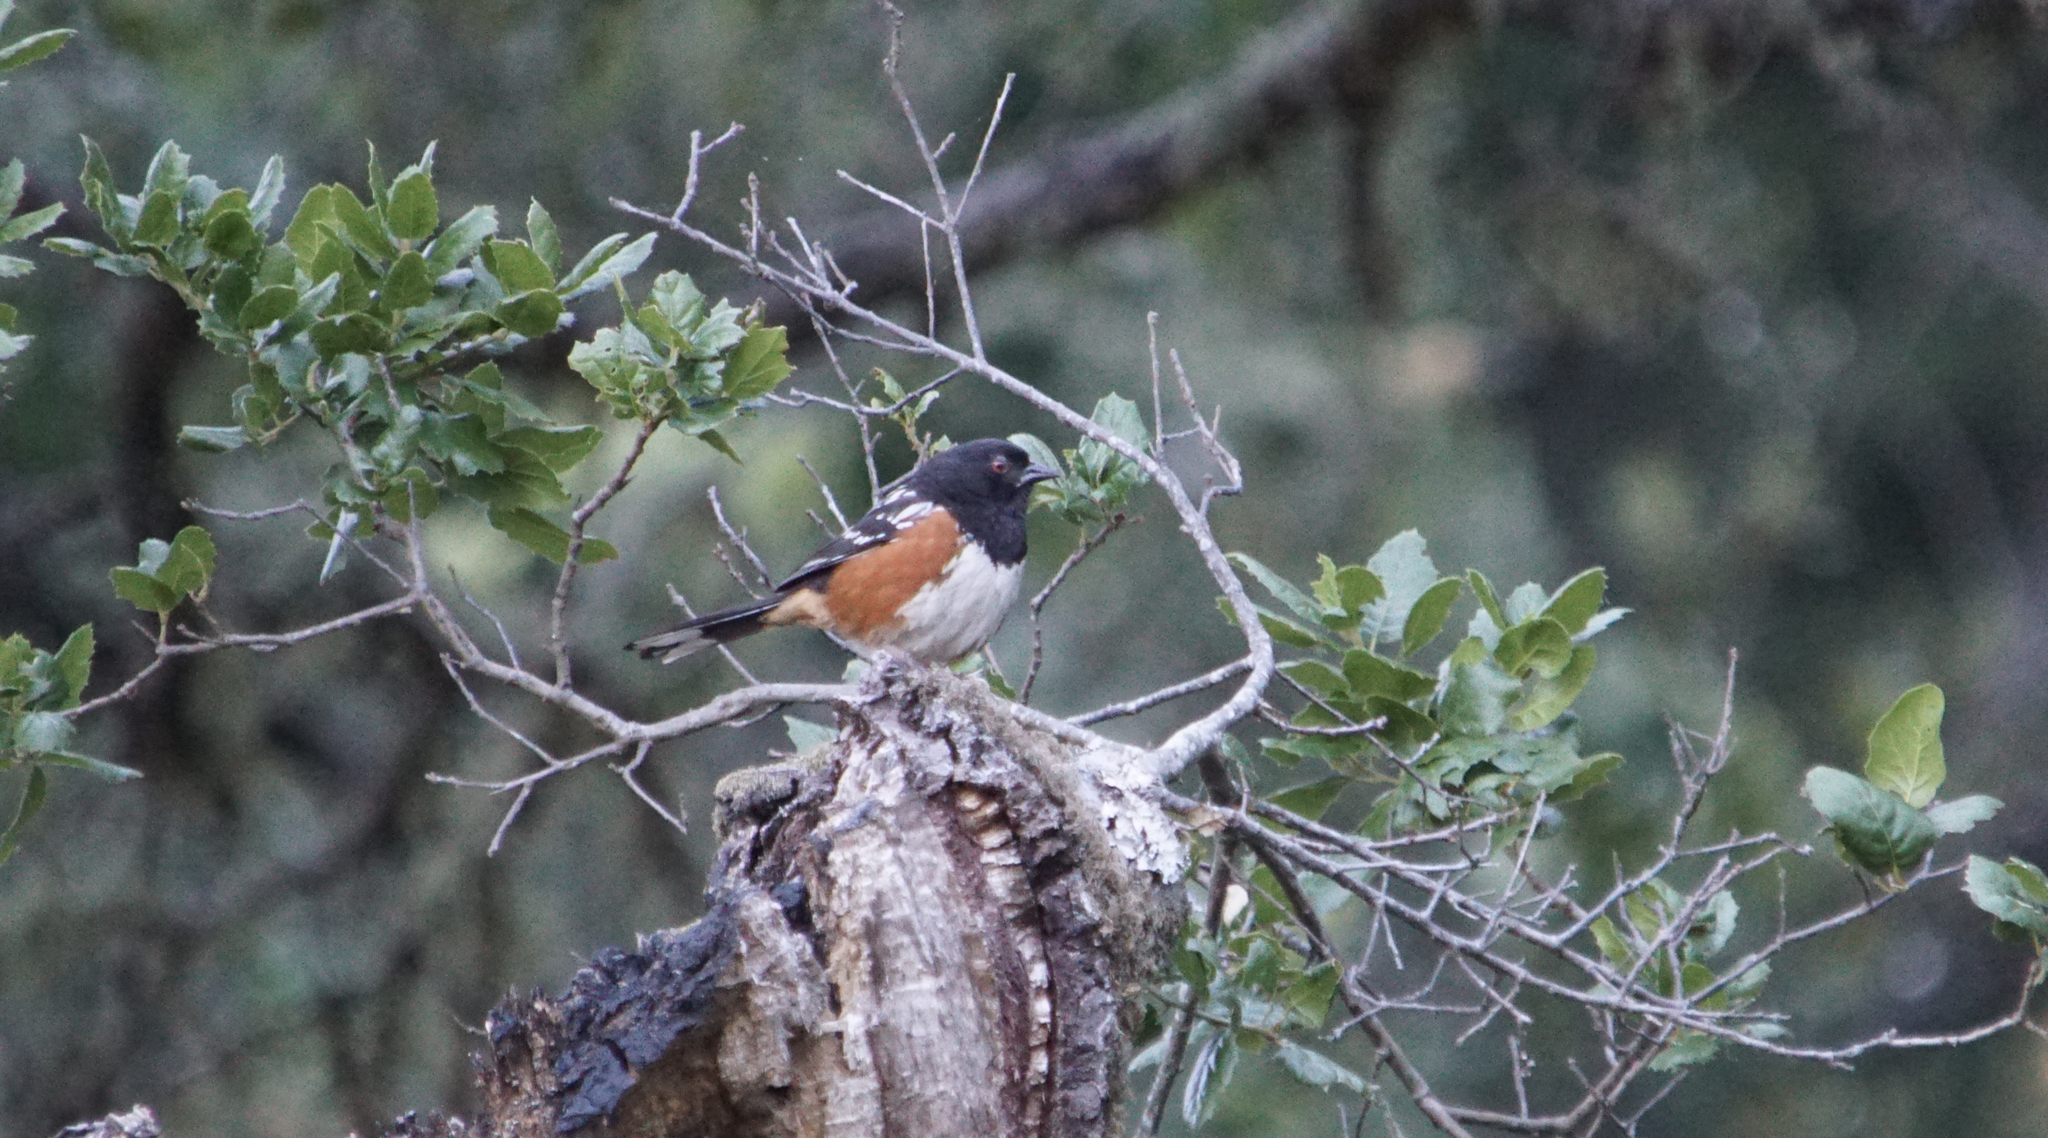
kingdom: Animalia
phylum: Chordata
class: Aves
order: Passeriformes
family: Passerellidae
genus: Pipilo
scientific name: Pipilo maculatus
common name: Spotted towhee
